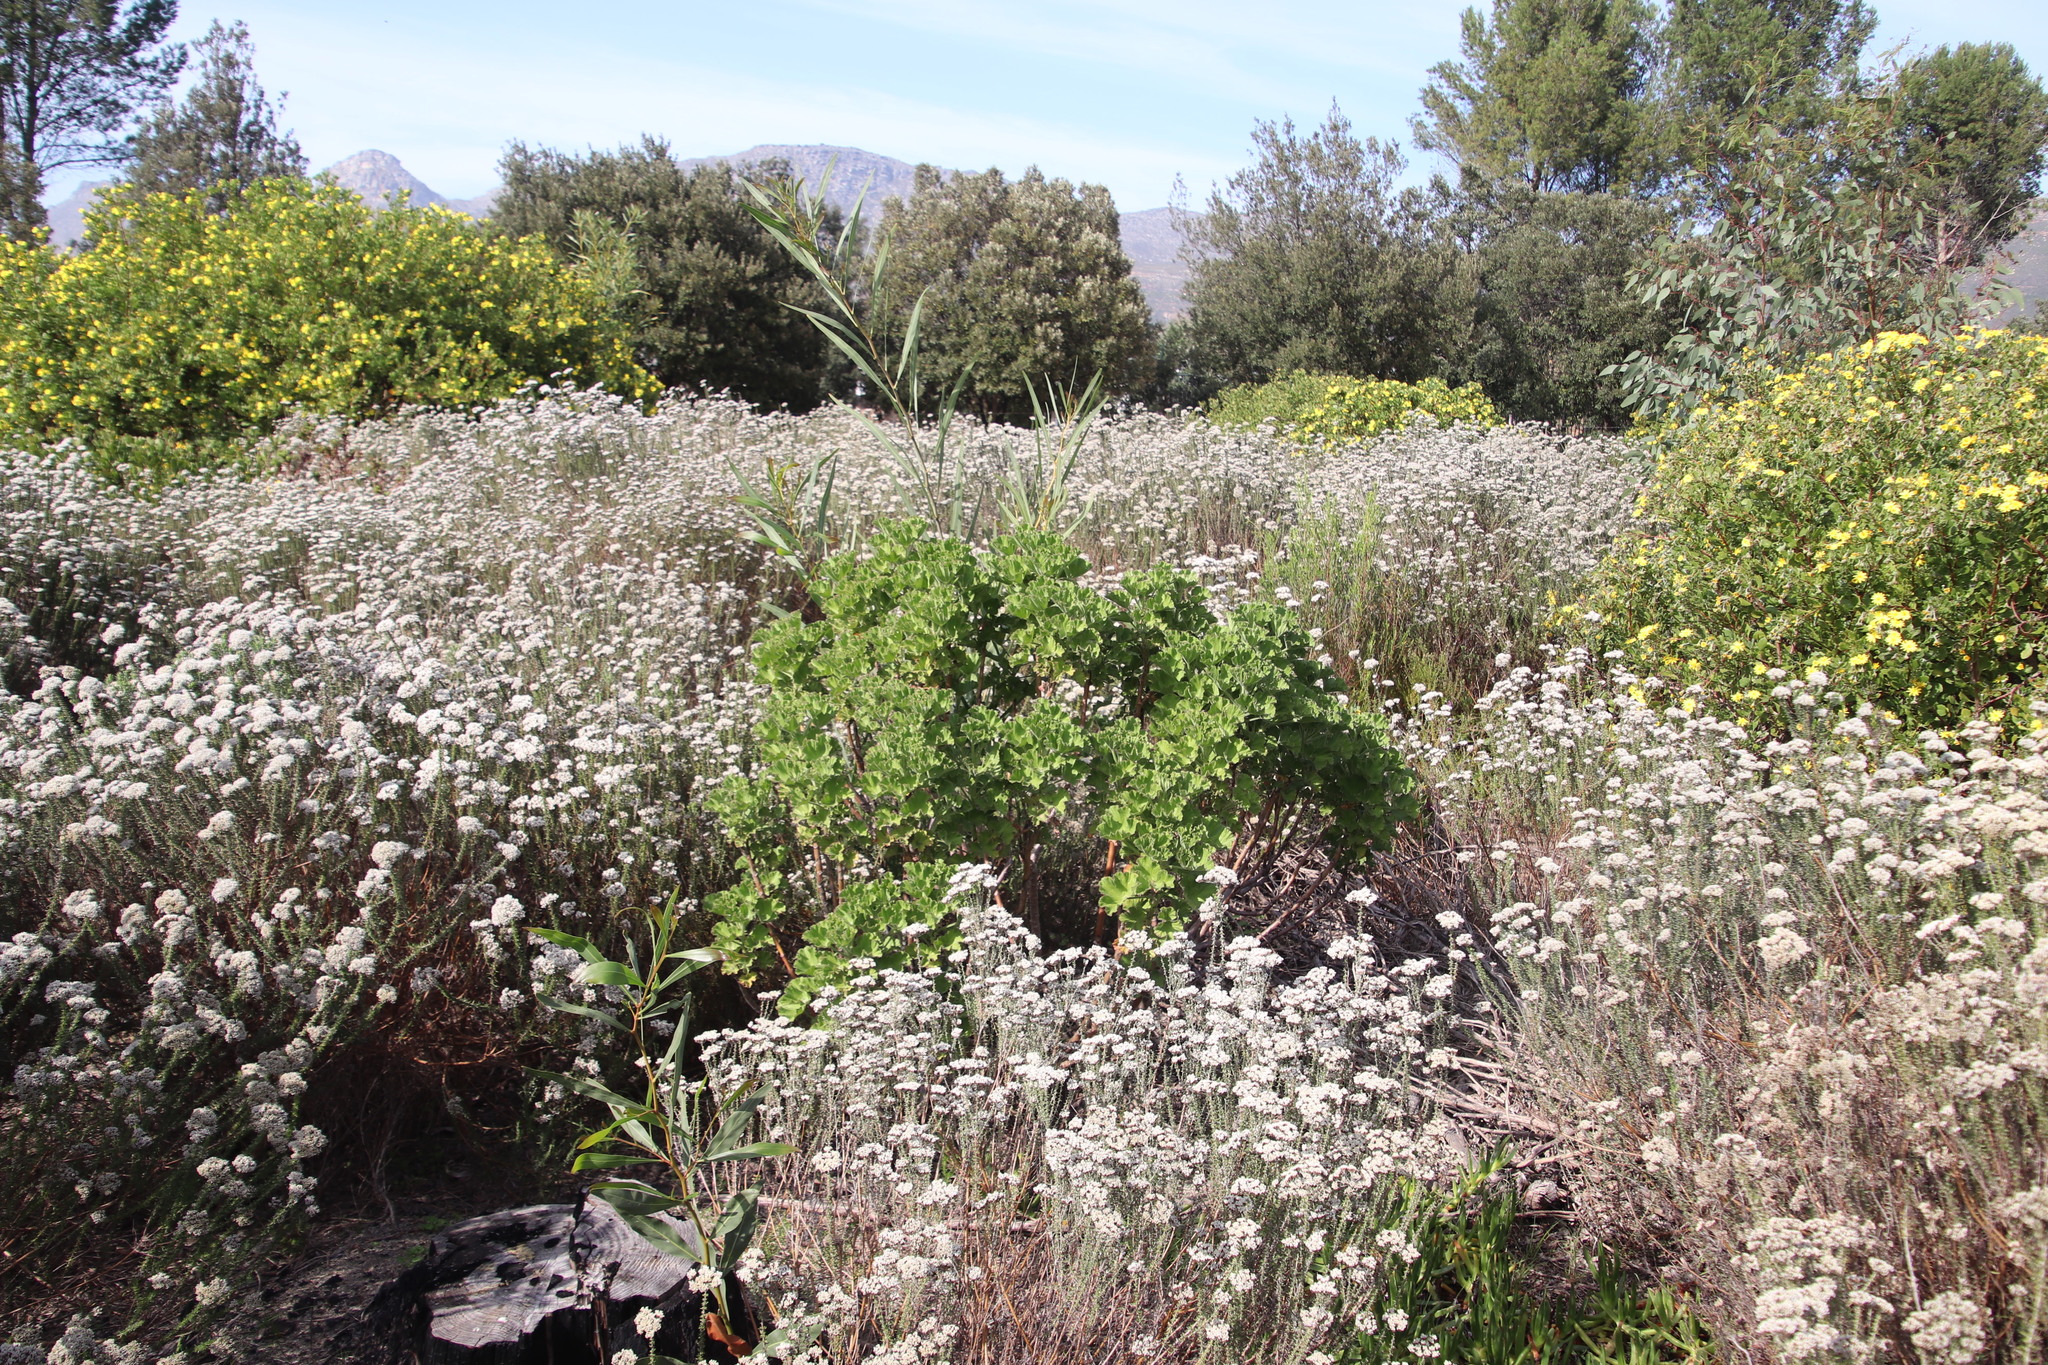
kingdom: Plantae
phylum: Tracheophyta
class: Magnoliopsida
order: Geraniales
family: Geraniaceae
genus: Pelargonium
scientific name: Pelargonium cucullatum
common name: Tree pelargonium
